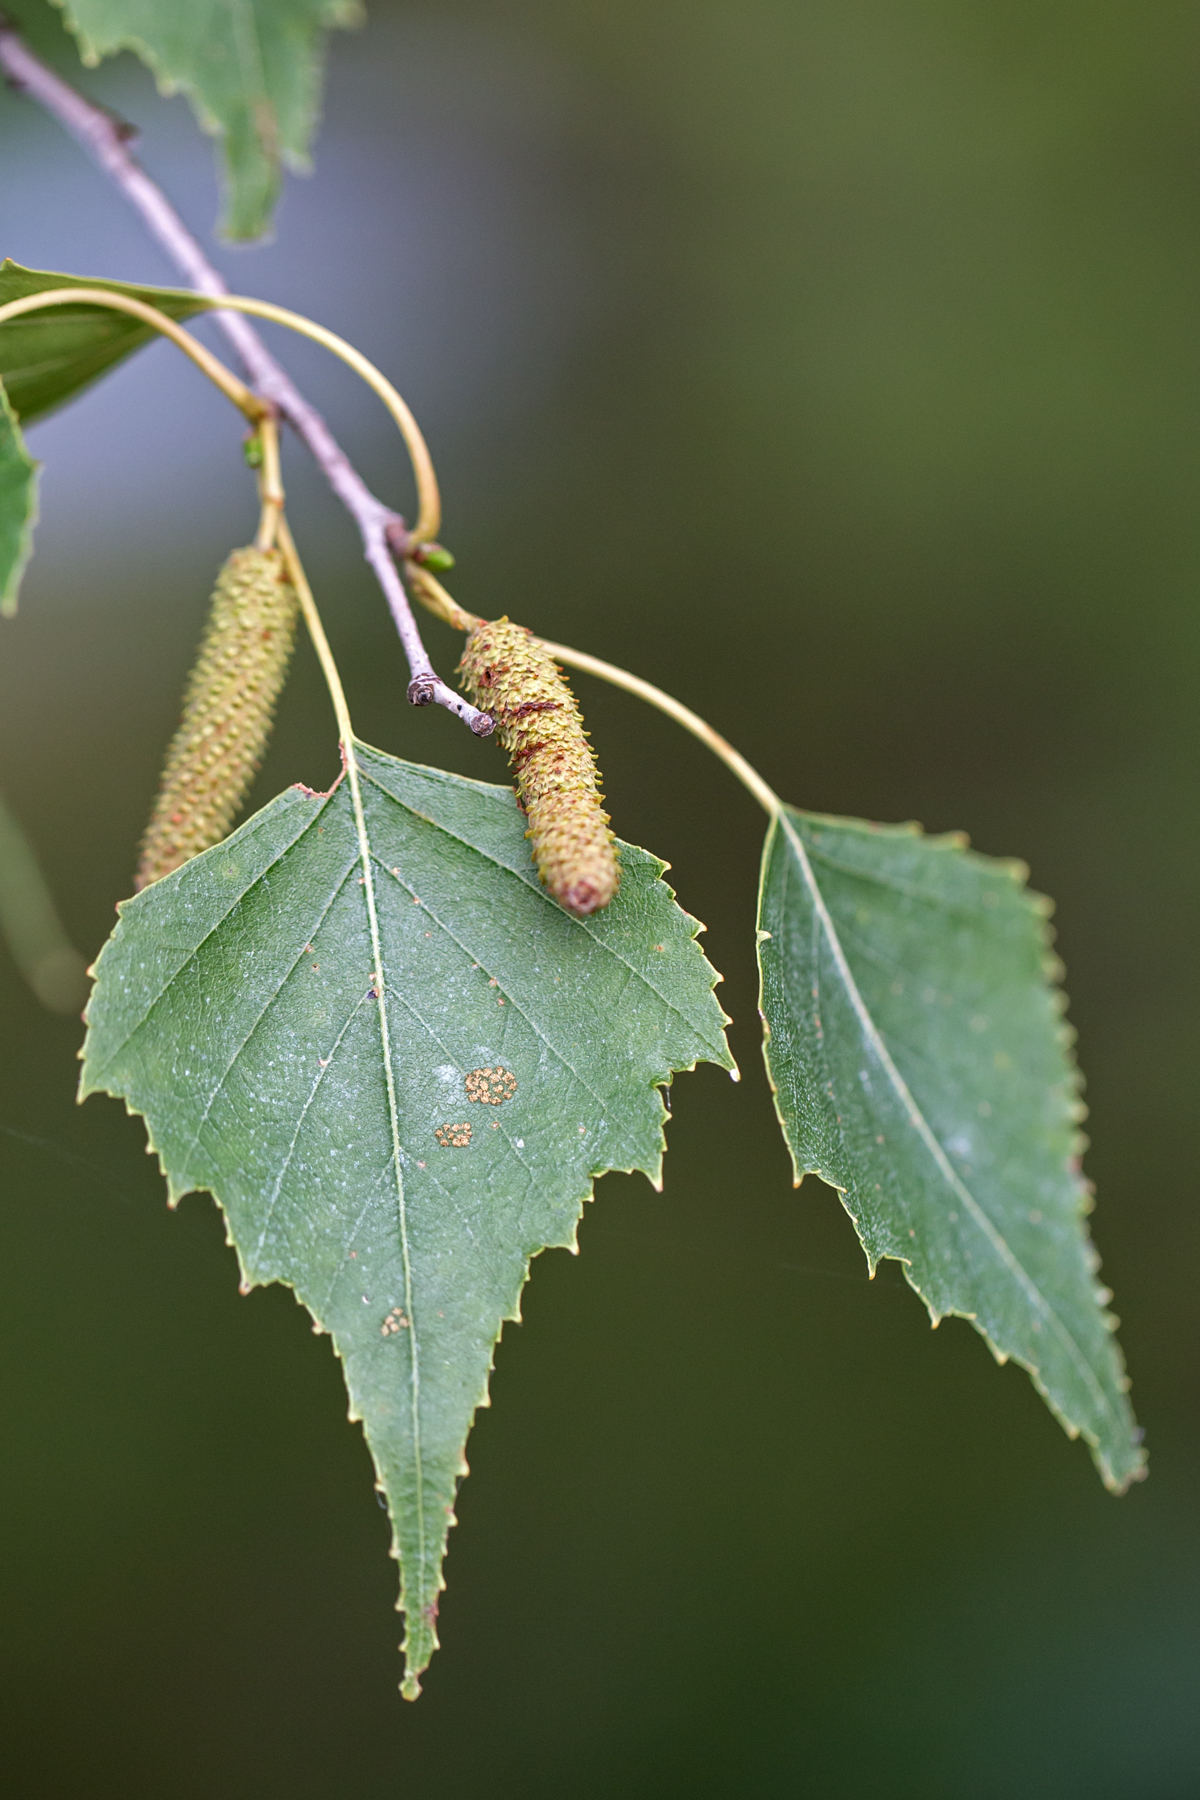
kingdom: Plantae
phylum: Tracheophyta
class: Magnoliopsida
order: Fagales
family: Betulaceae
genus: Betula
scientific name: Betula populifolia
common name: Fire birch
